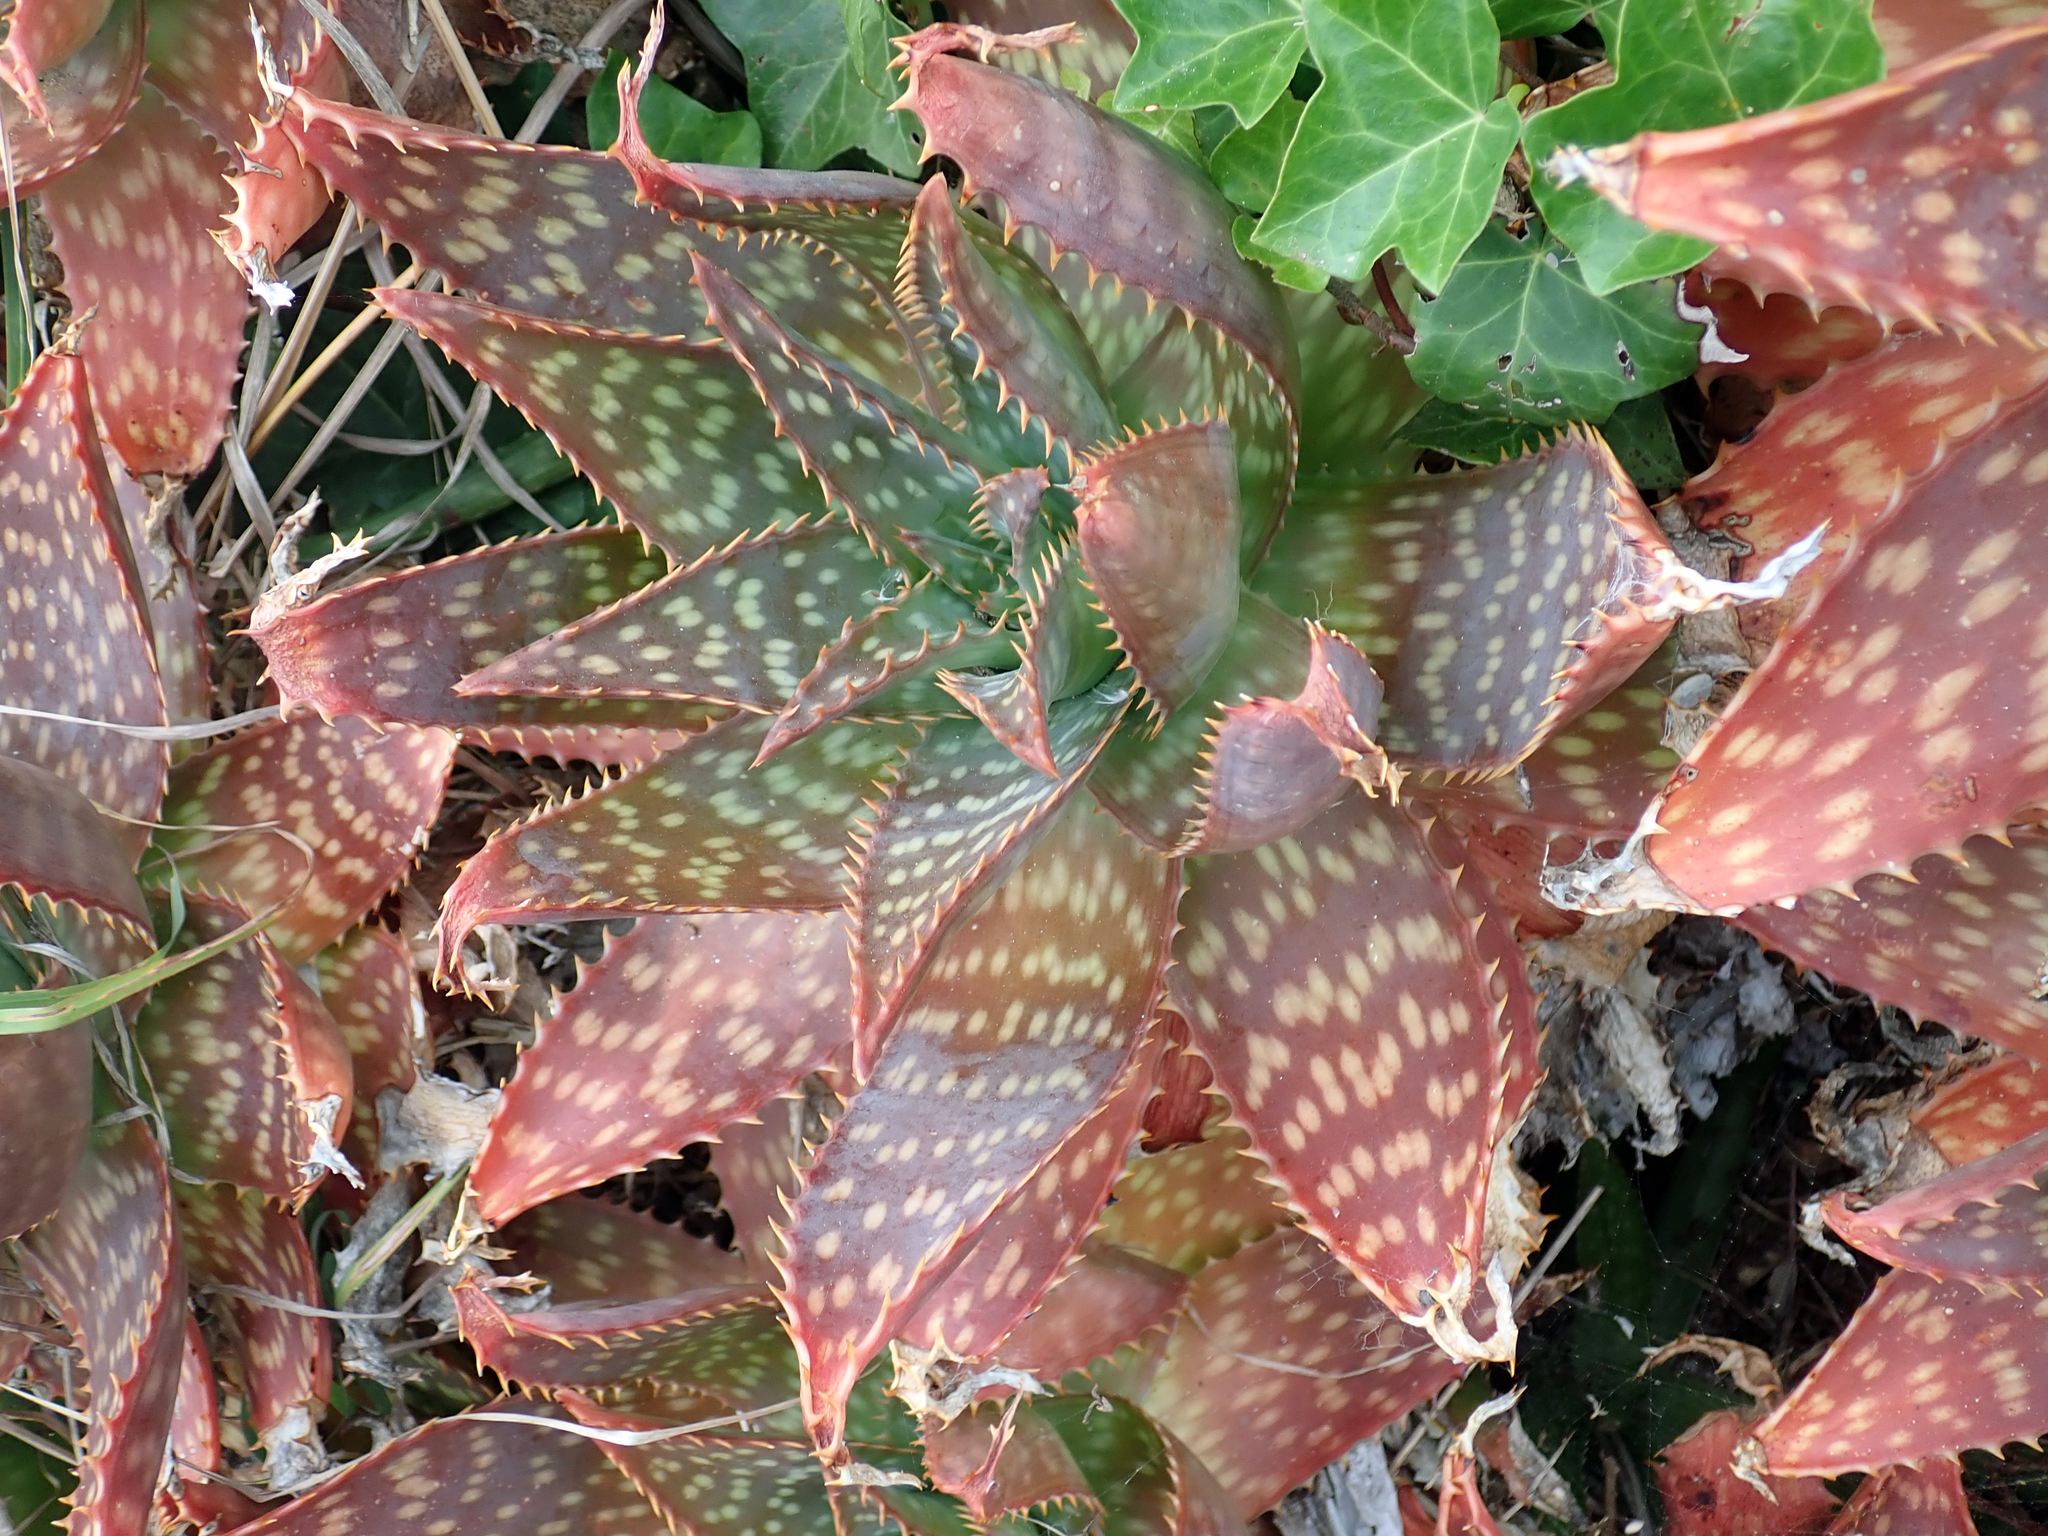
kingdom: Plantae
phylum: Tracheophyta
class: Liliopsida
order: Asparagales
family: Asphodelaceae
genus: Aloe
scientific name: Aloe maculata
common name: Broadleaf aloe
